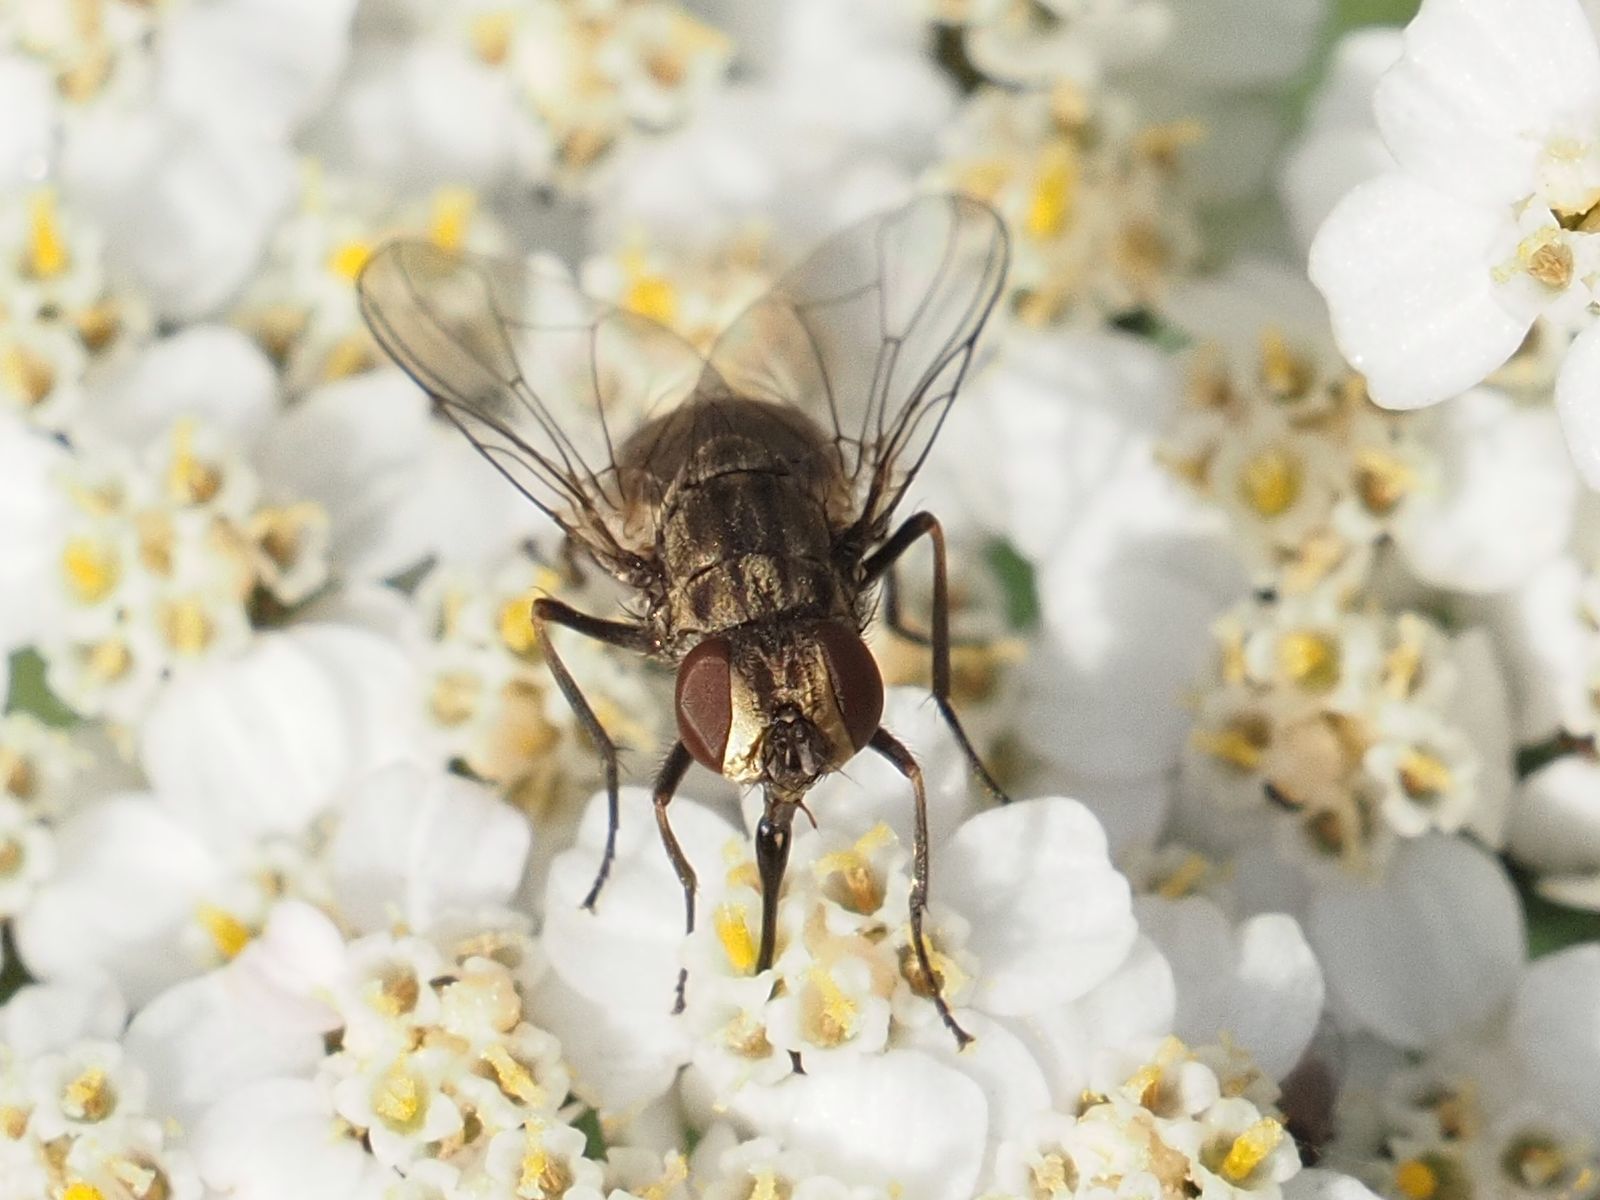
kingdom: Animalia
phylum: Arthropoda
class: Insecta
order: Diptera
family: Muscidae
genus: Stomoxys
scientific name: Stomoxys calcitrans
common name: Stable fly
